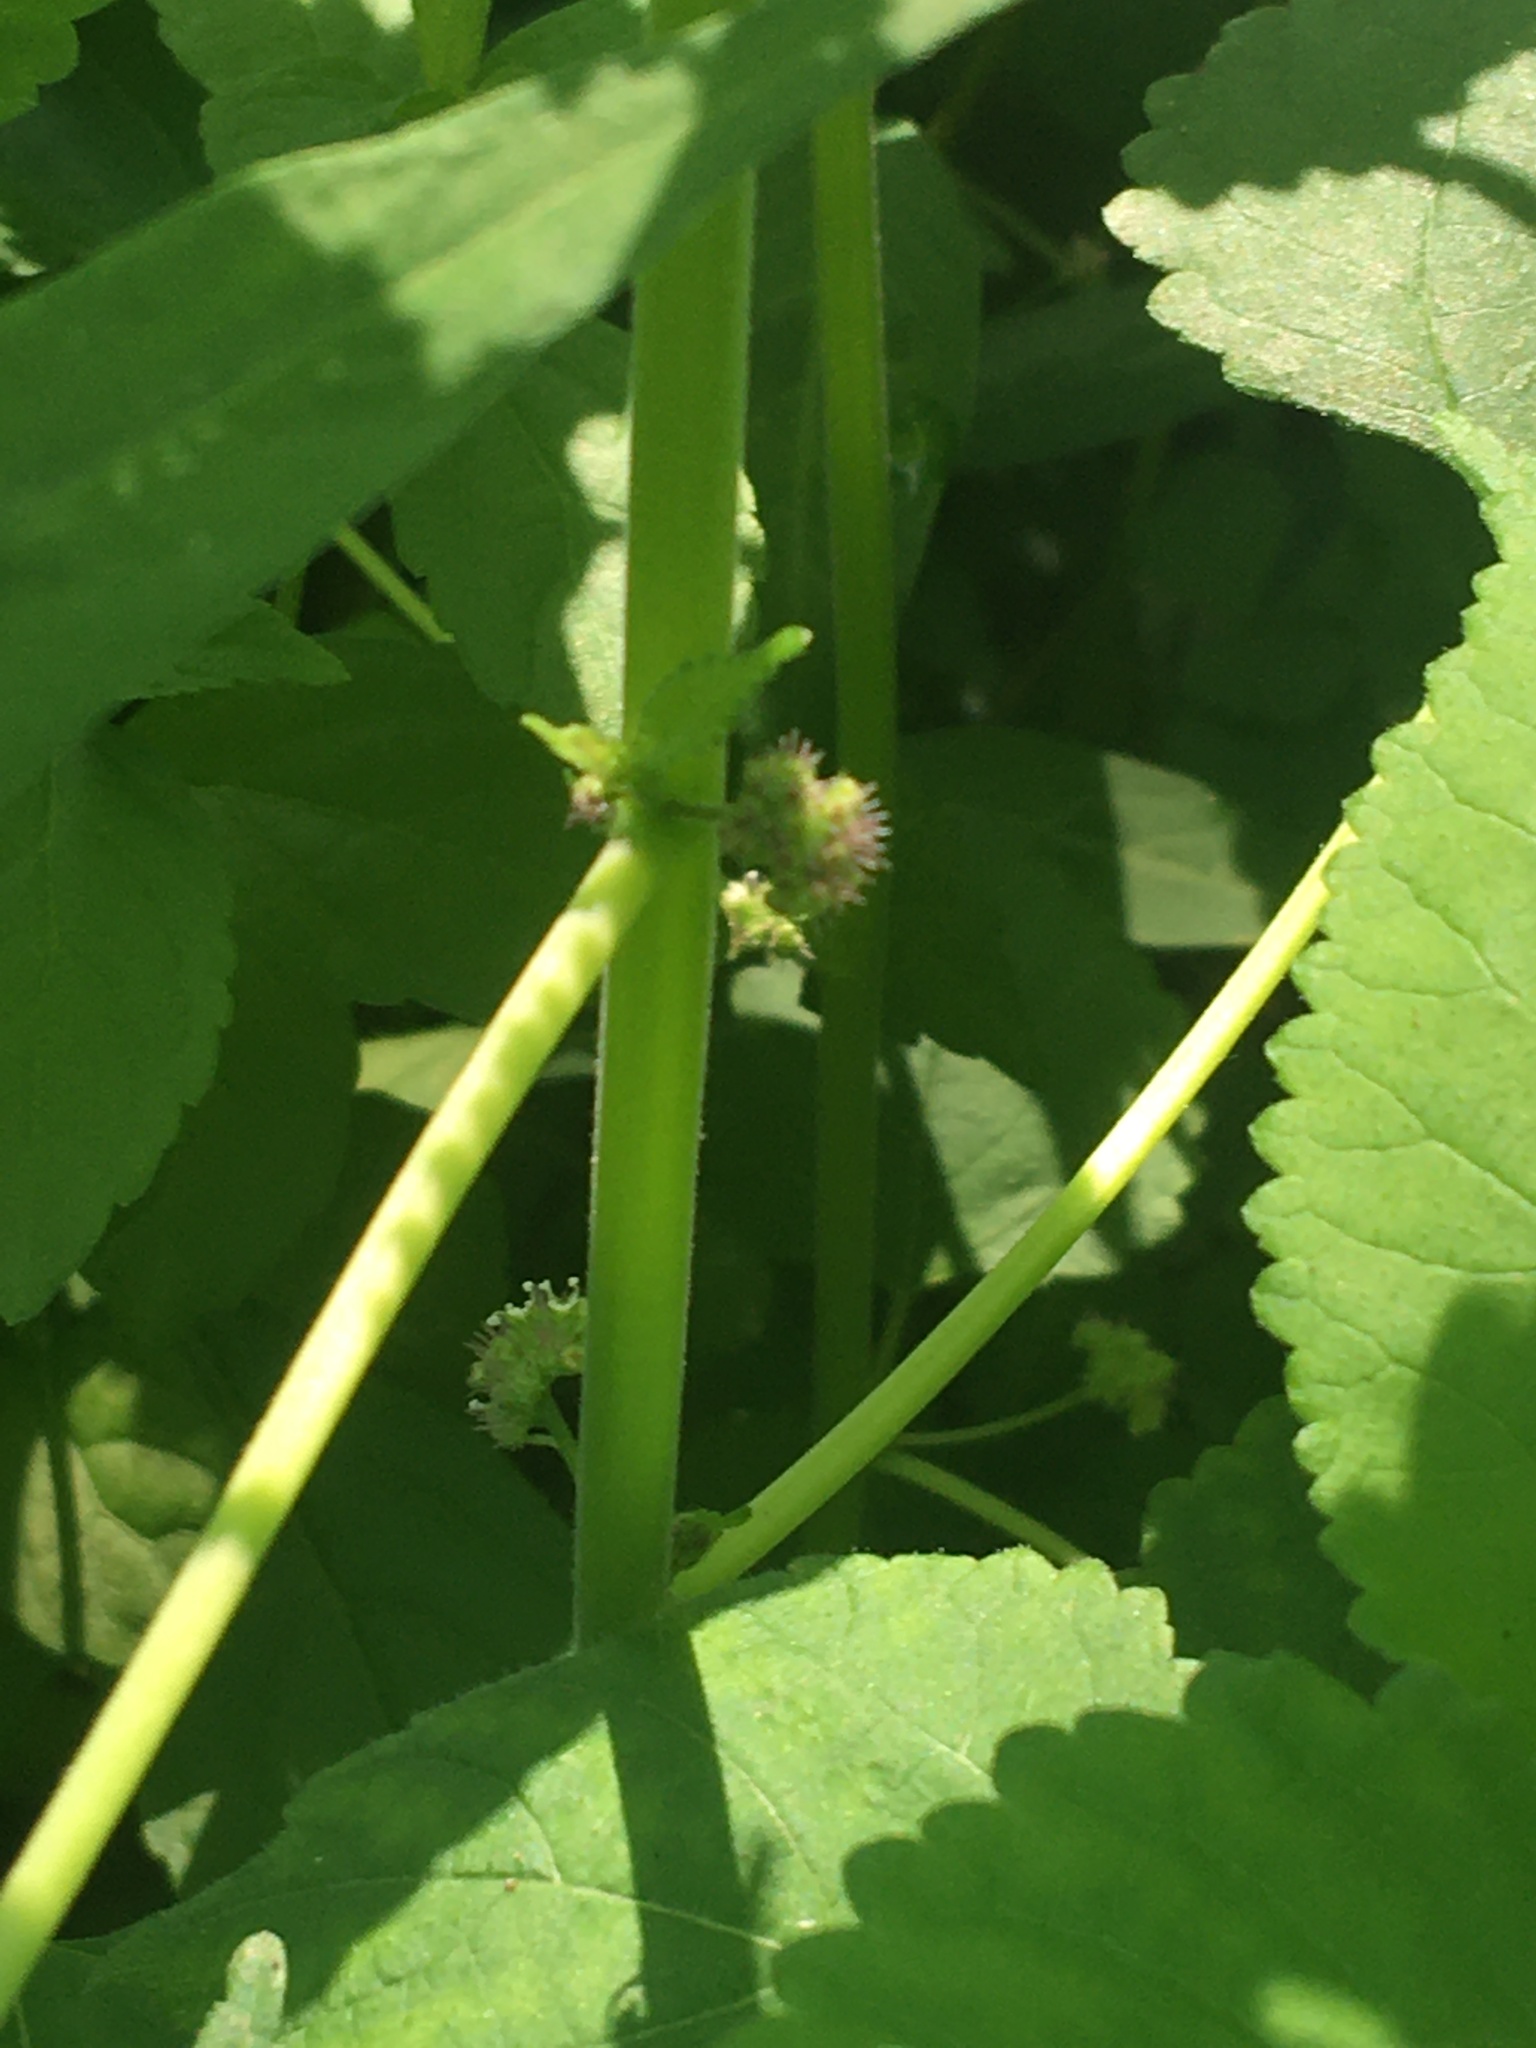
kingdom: Plantae
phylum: Tracheophyta
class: Magnoliopsida
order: Rosales
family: Moraceae
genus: Fatoua
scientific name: Fatoua villosa
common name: Hairy crabweed
